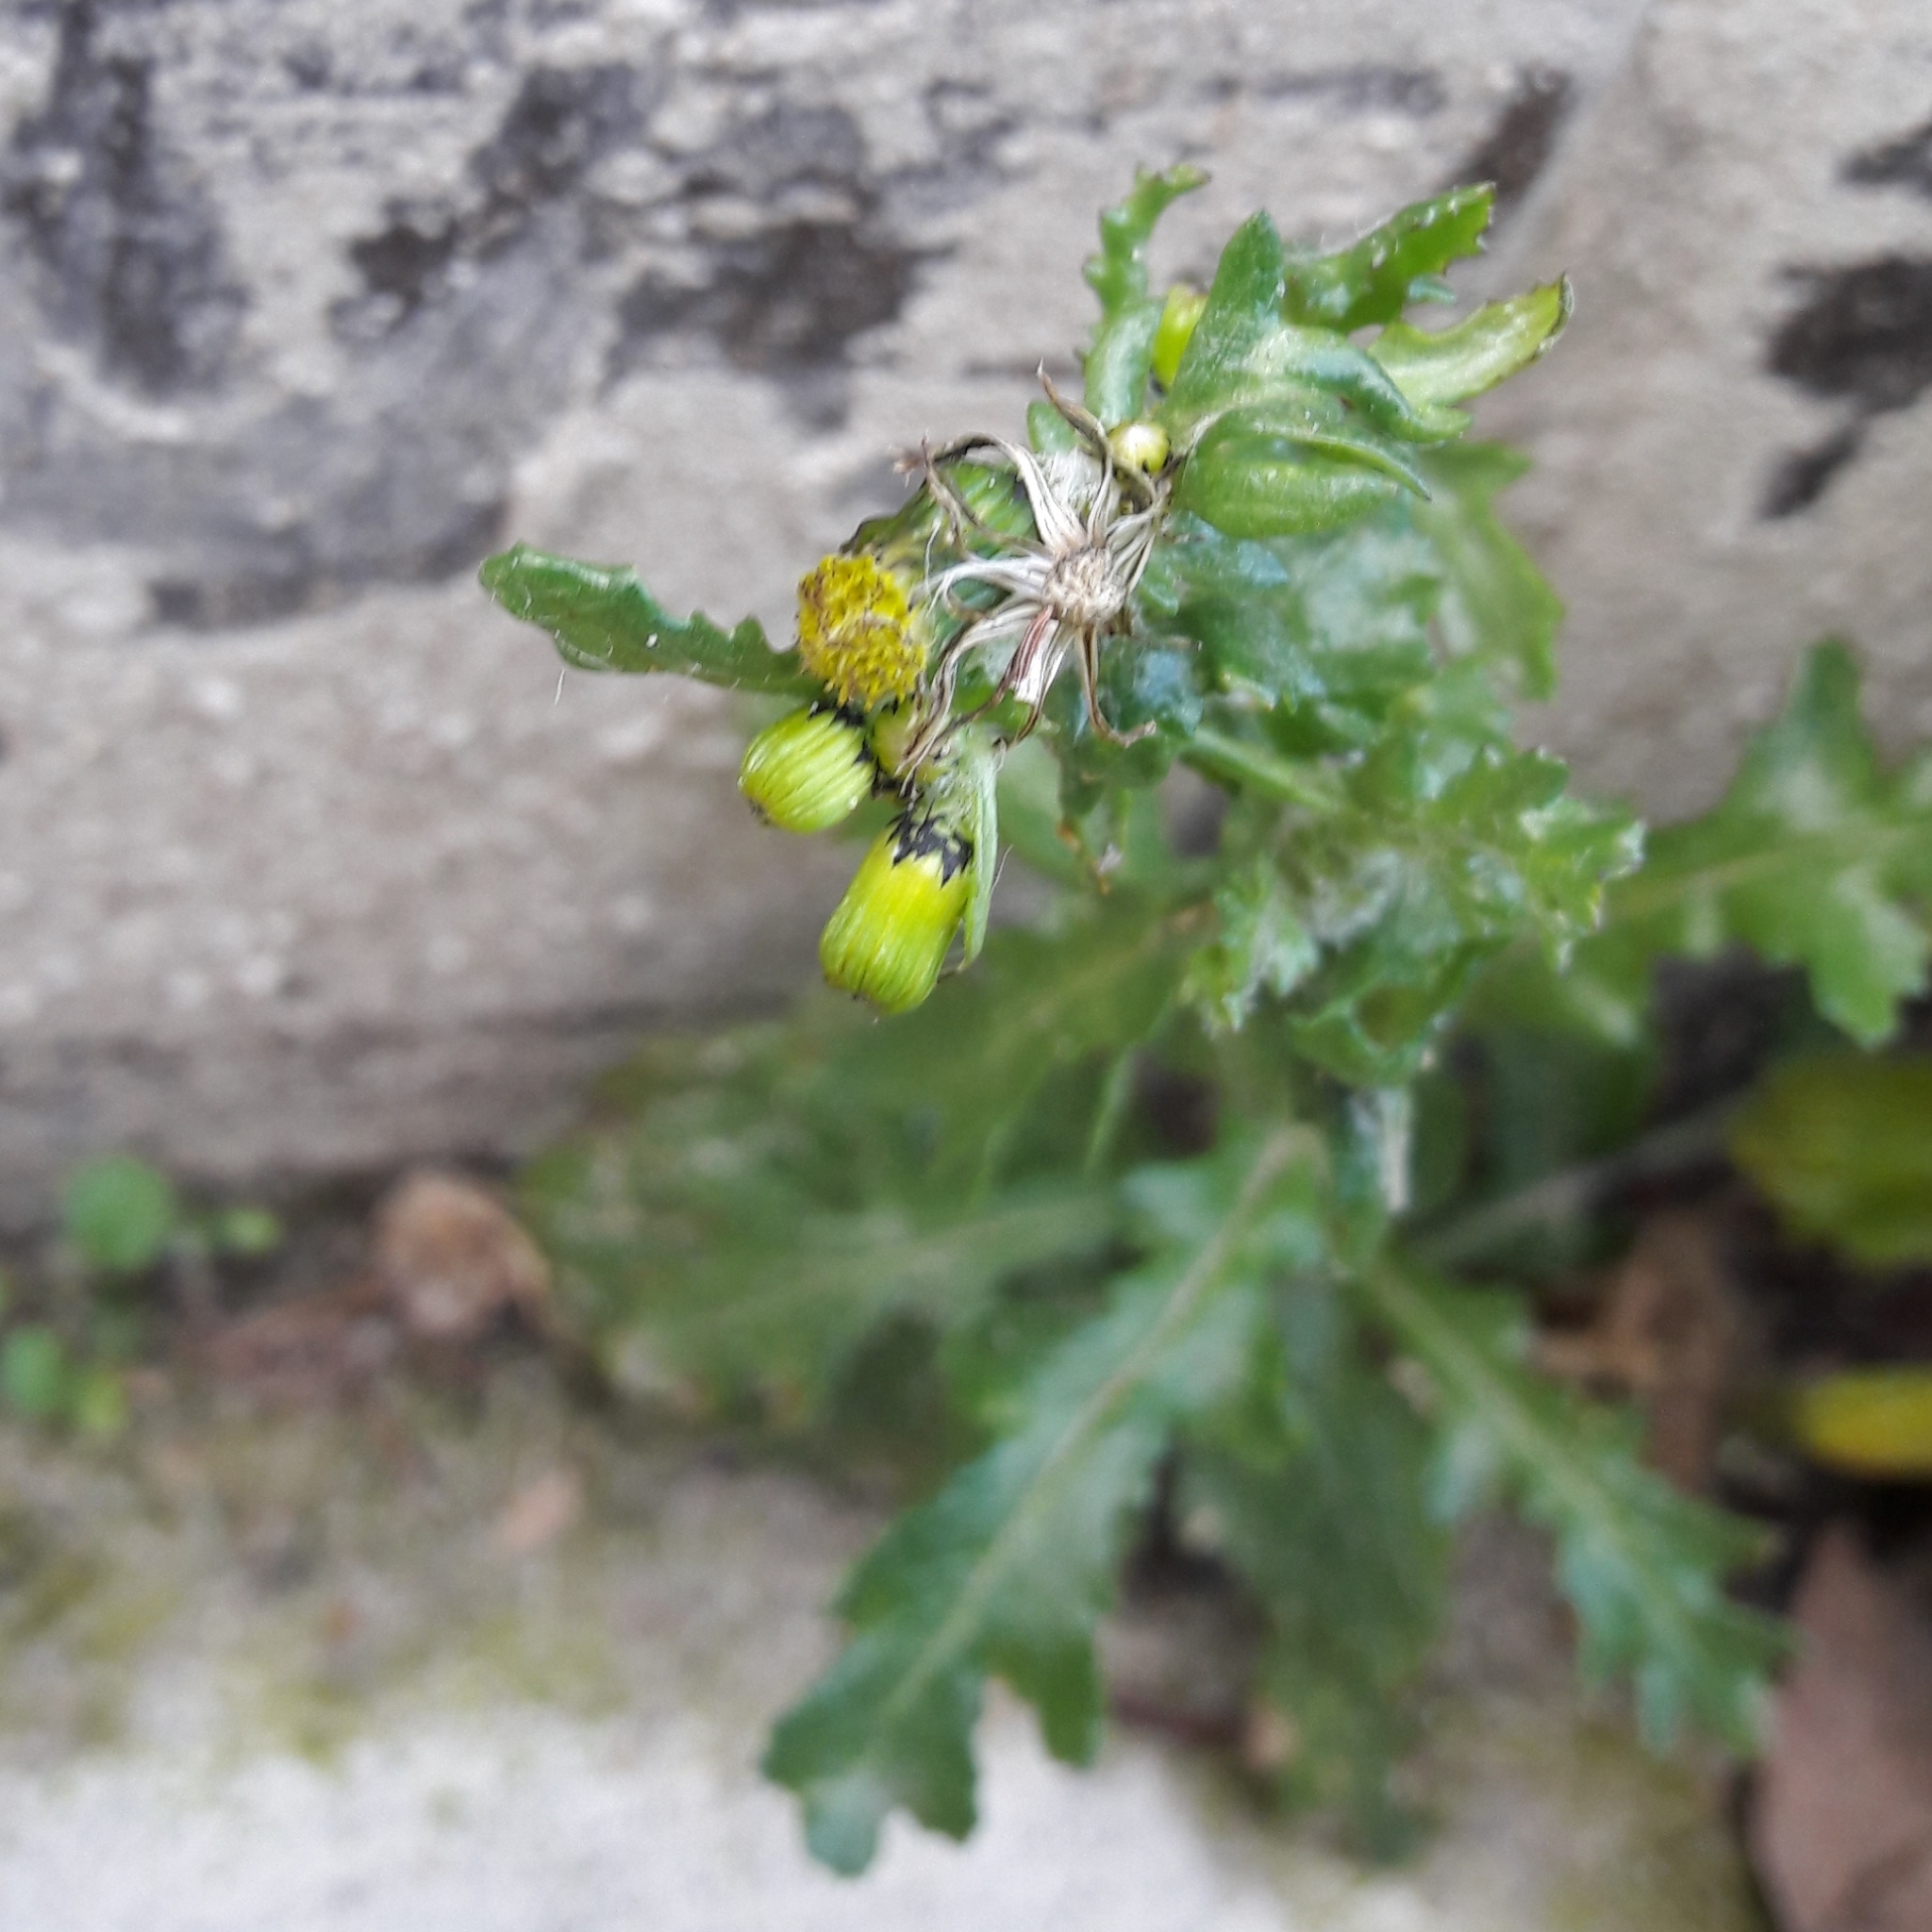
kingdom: Plantae
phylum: Tracheophyta
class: Magnoliopsida
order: Asterales
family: Asteraceae
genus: Senecio
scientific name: Senecio vulgaris
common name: Old-man-in-the-spring
